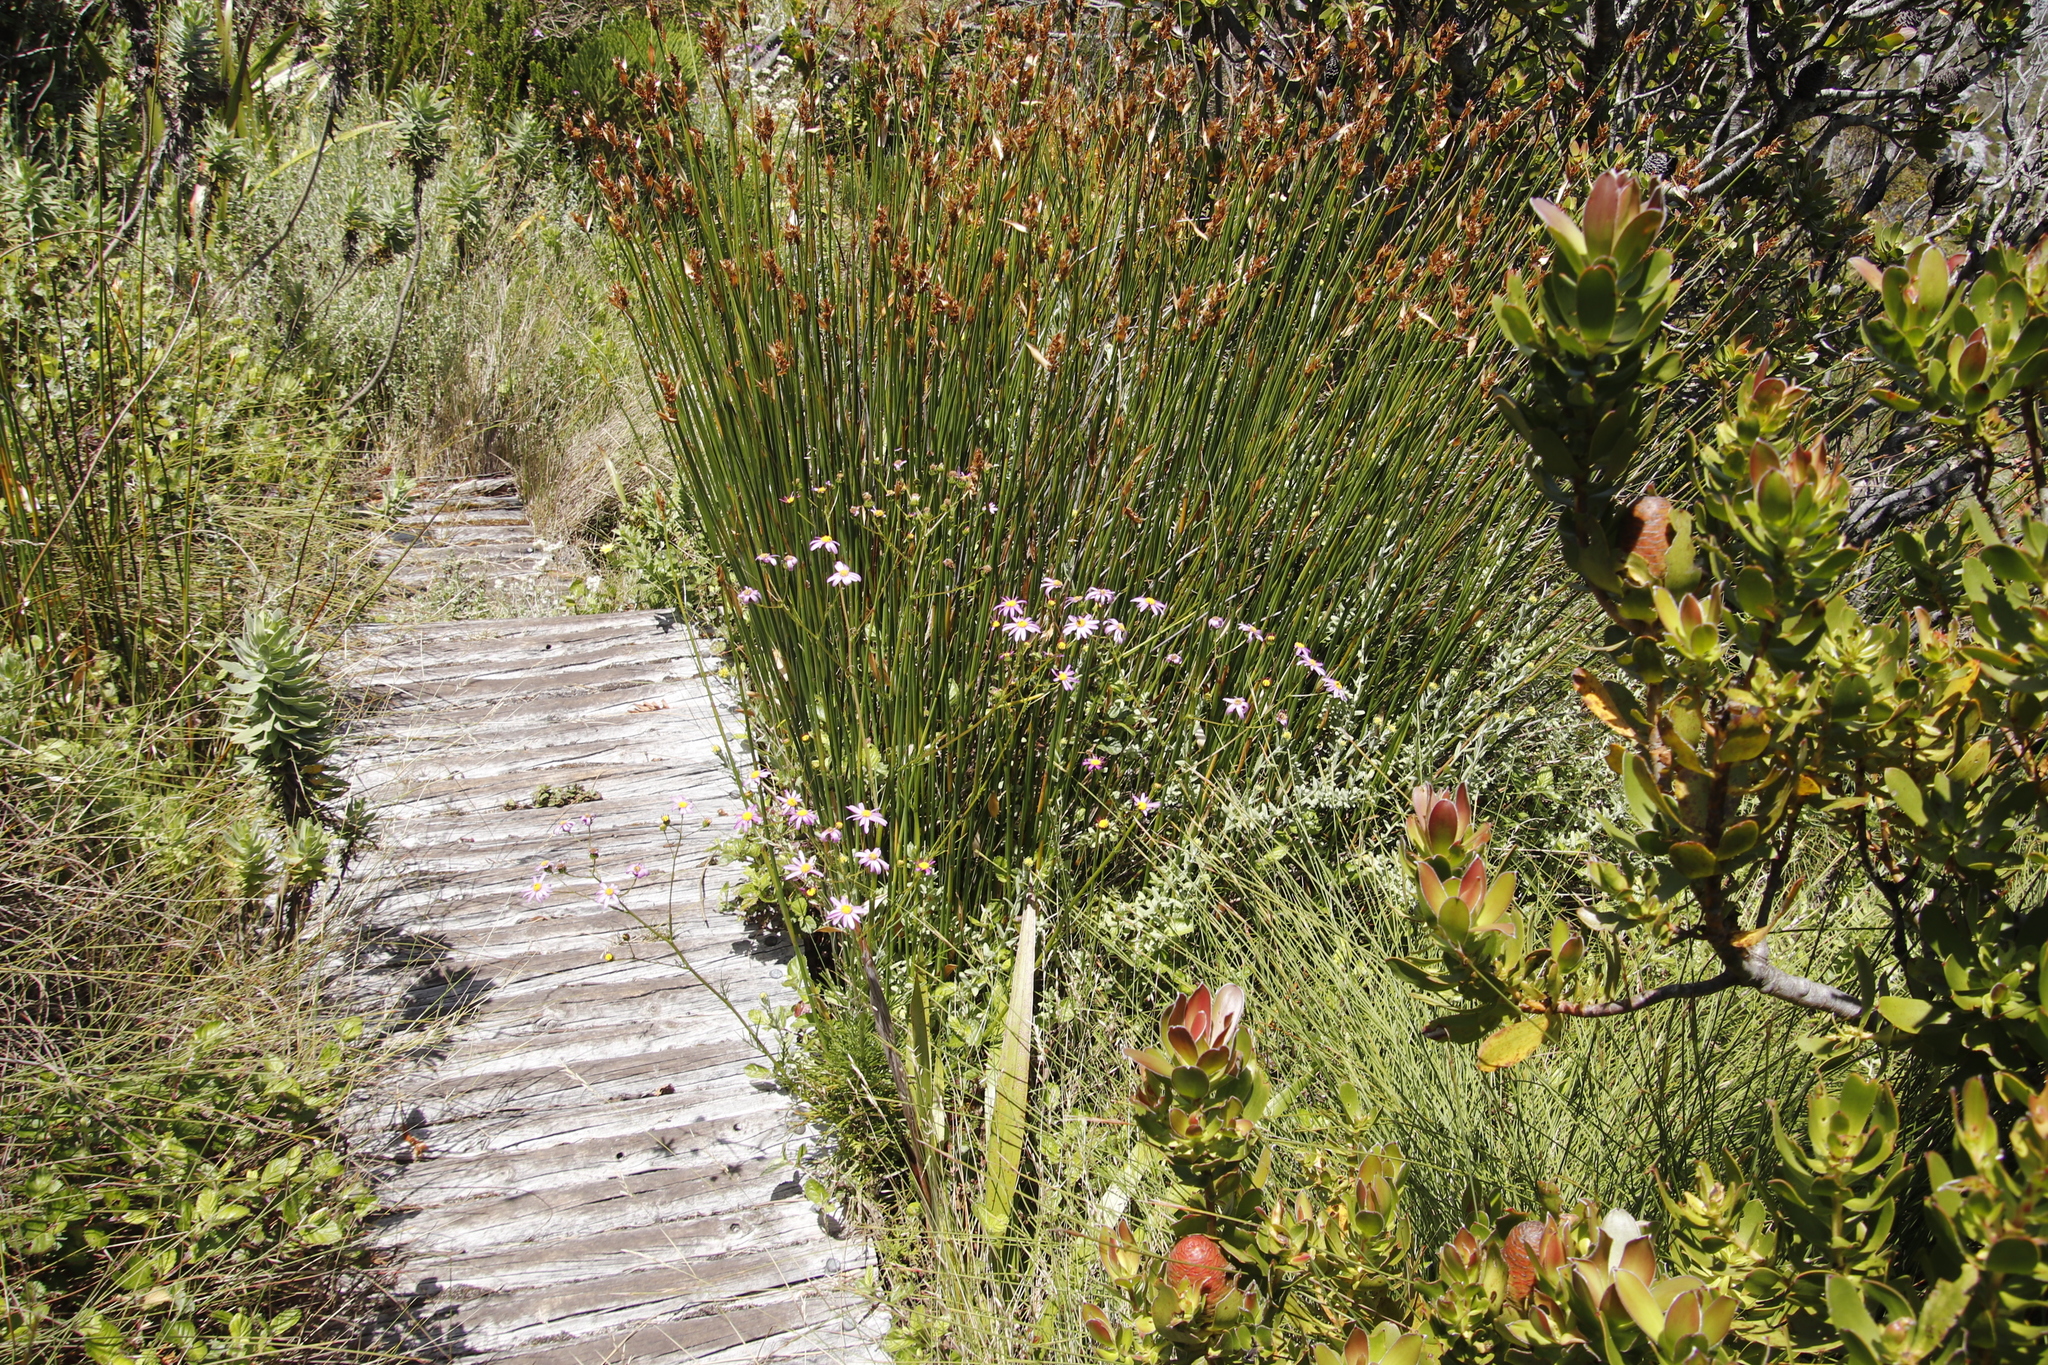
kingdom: Plantae
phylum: Tracheophyta
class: Magnoliopsida
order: Asterales
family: Asteraceae
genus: Senecio
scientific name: Senecio umbellatus
